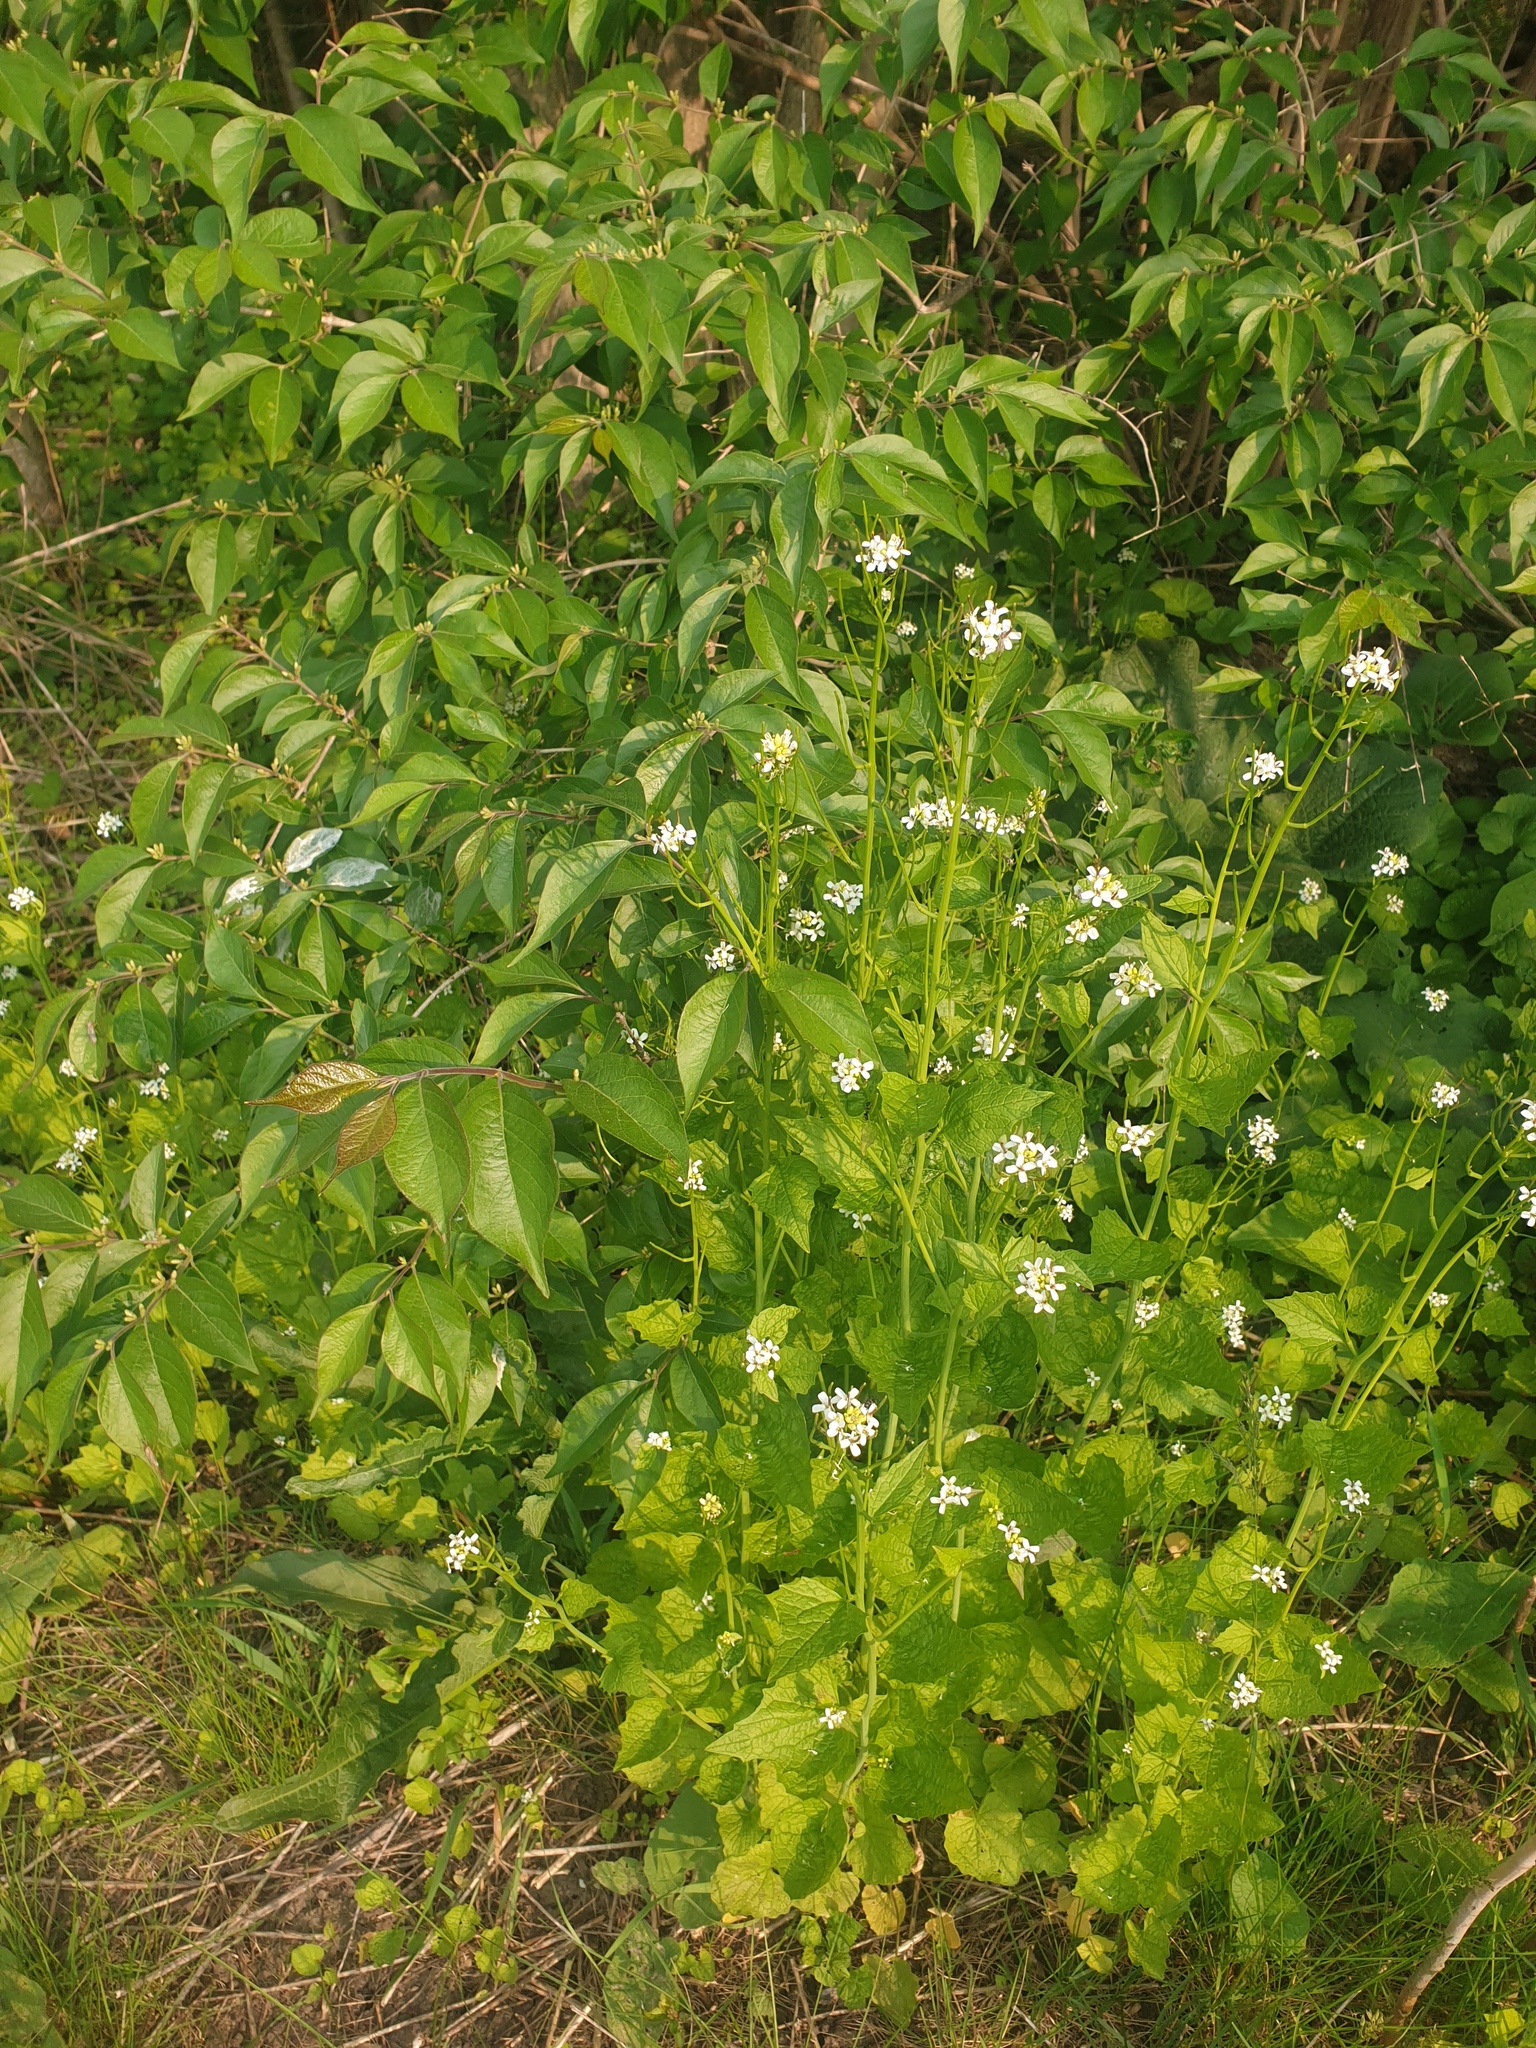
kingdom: Plantae
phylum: Tracheophyta
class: Magnoliopsida
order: Brassicales
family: Brassicaceae
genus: Alliaria
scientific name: Alliaria petiolata
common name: Garlic mustard
